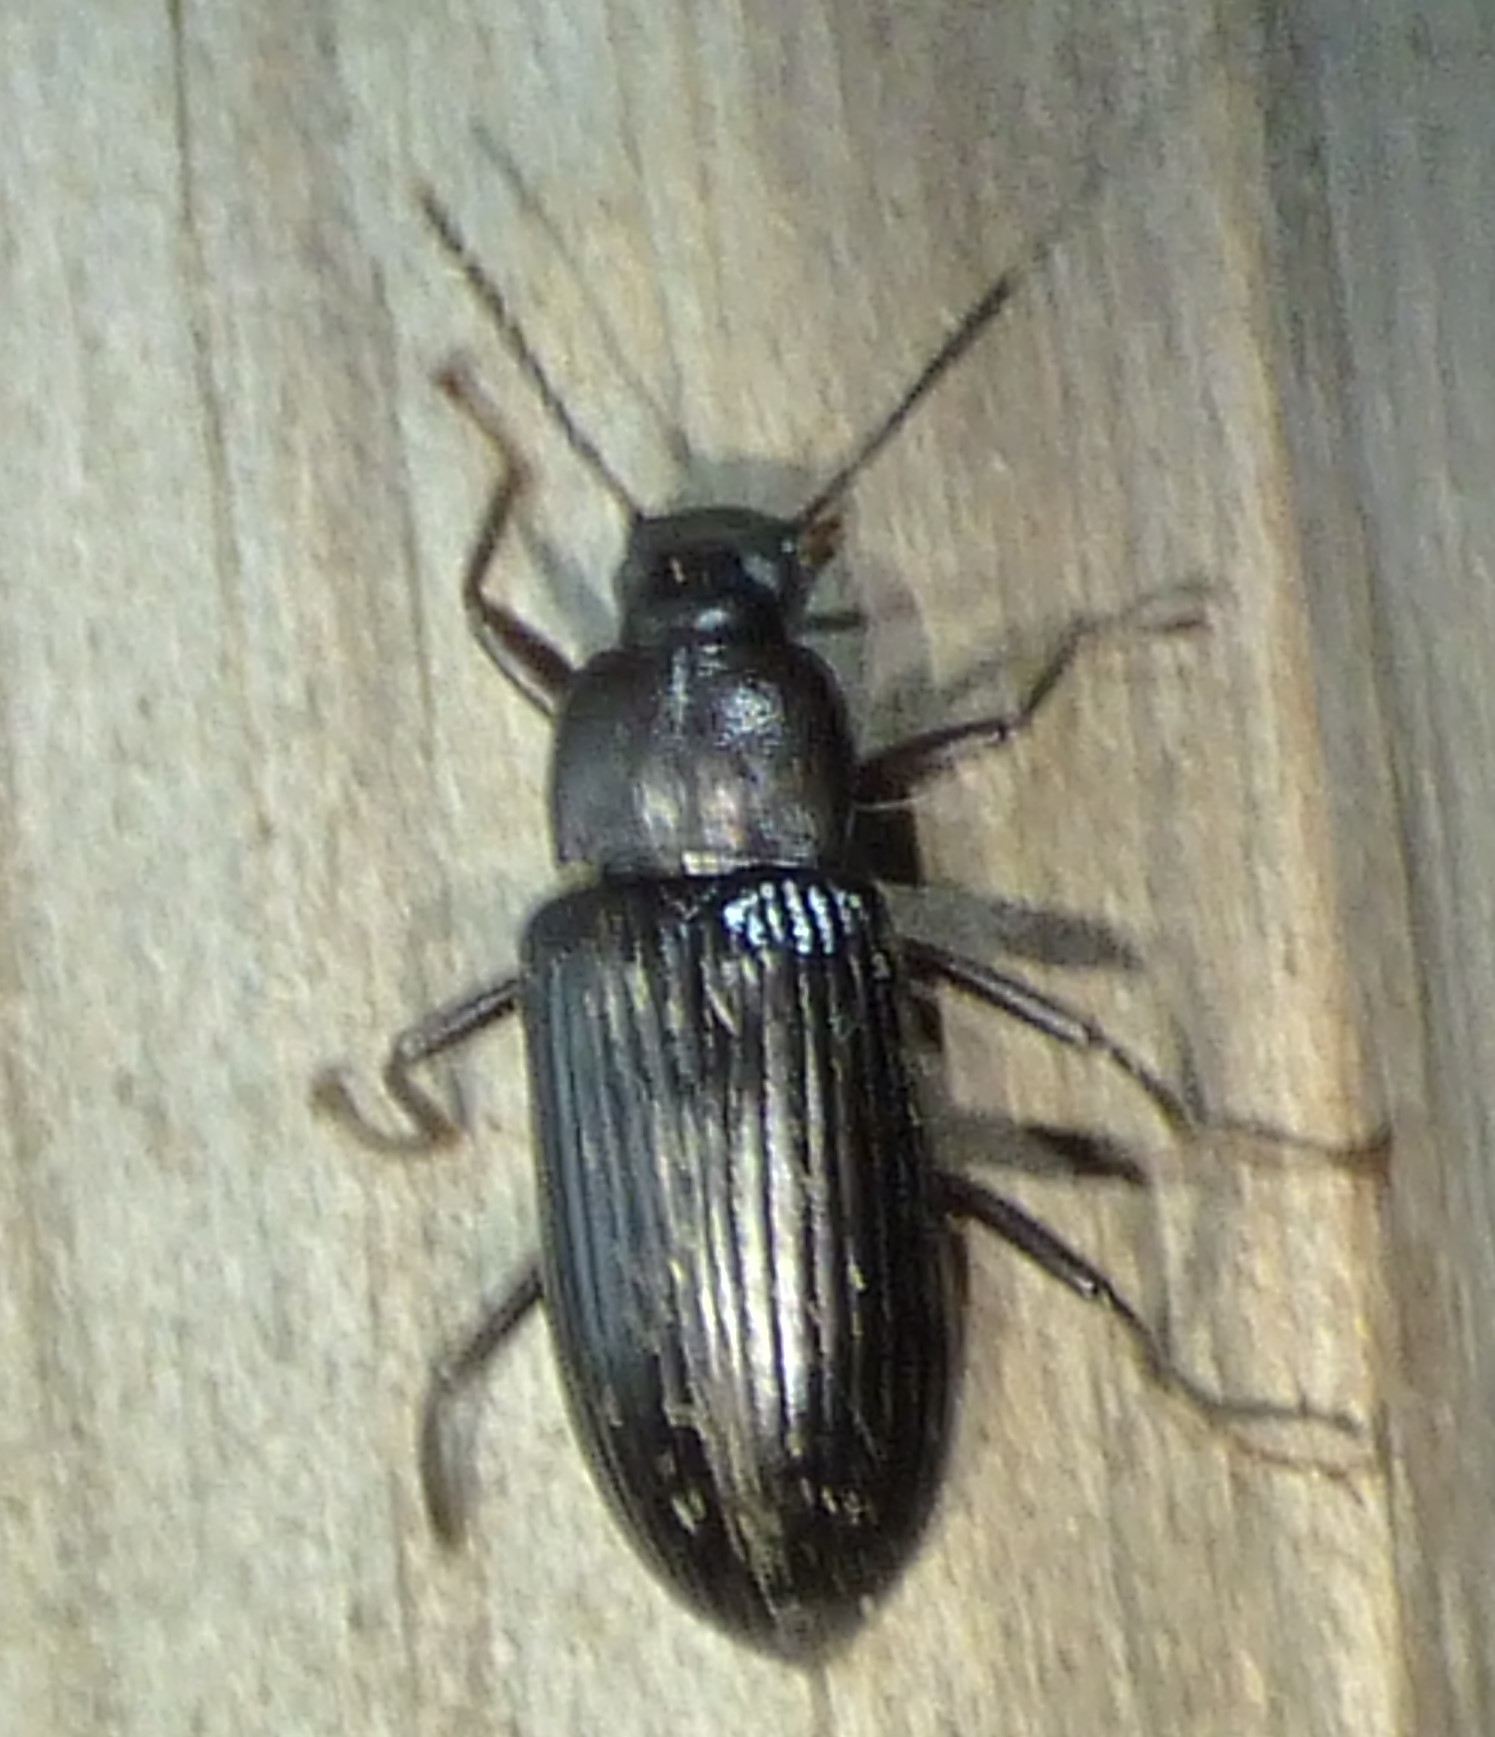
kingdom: Animalia
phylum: Arthropoda
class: Insecta
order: Coleoptera
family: Tenebrionidae
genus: Strongylium
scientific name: Strongylium terminatum
